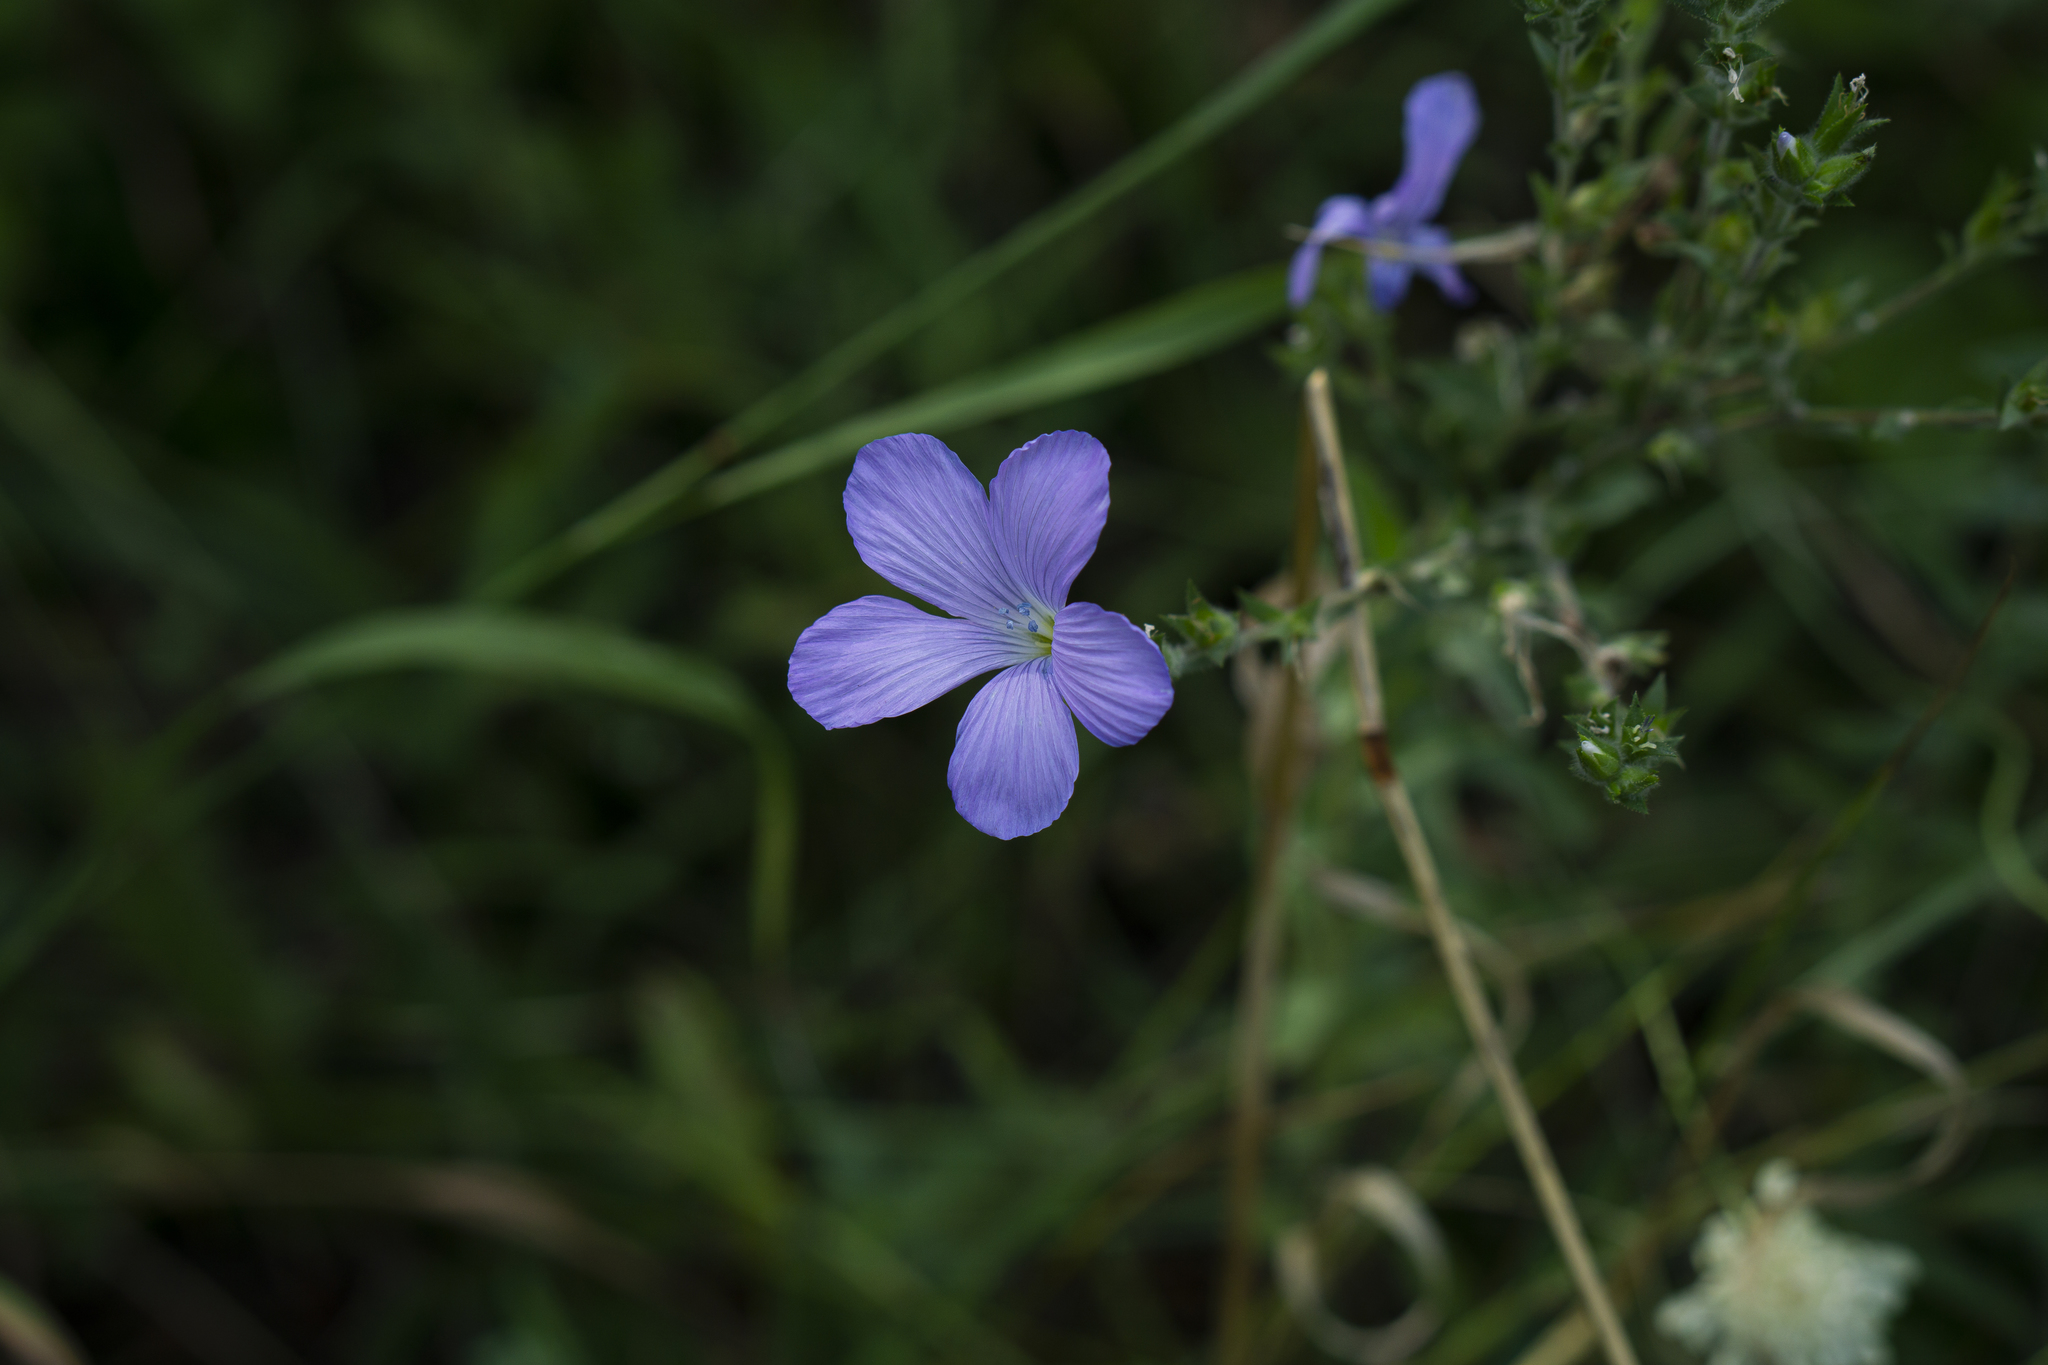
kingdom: Plantae
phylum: Tracheophyta
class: Magnoliopsida
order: Malpighiales
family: Linaceae
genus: Linum
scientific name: Linum hirsutum
